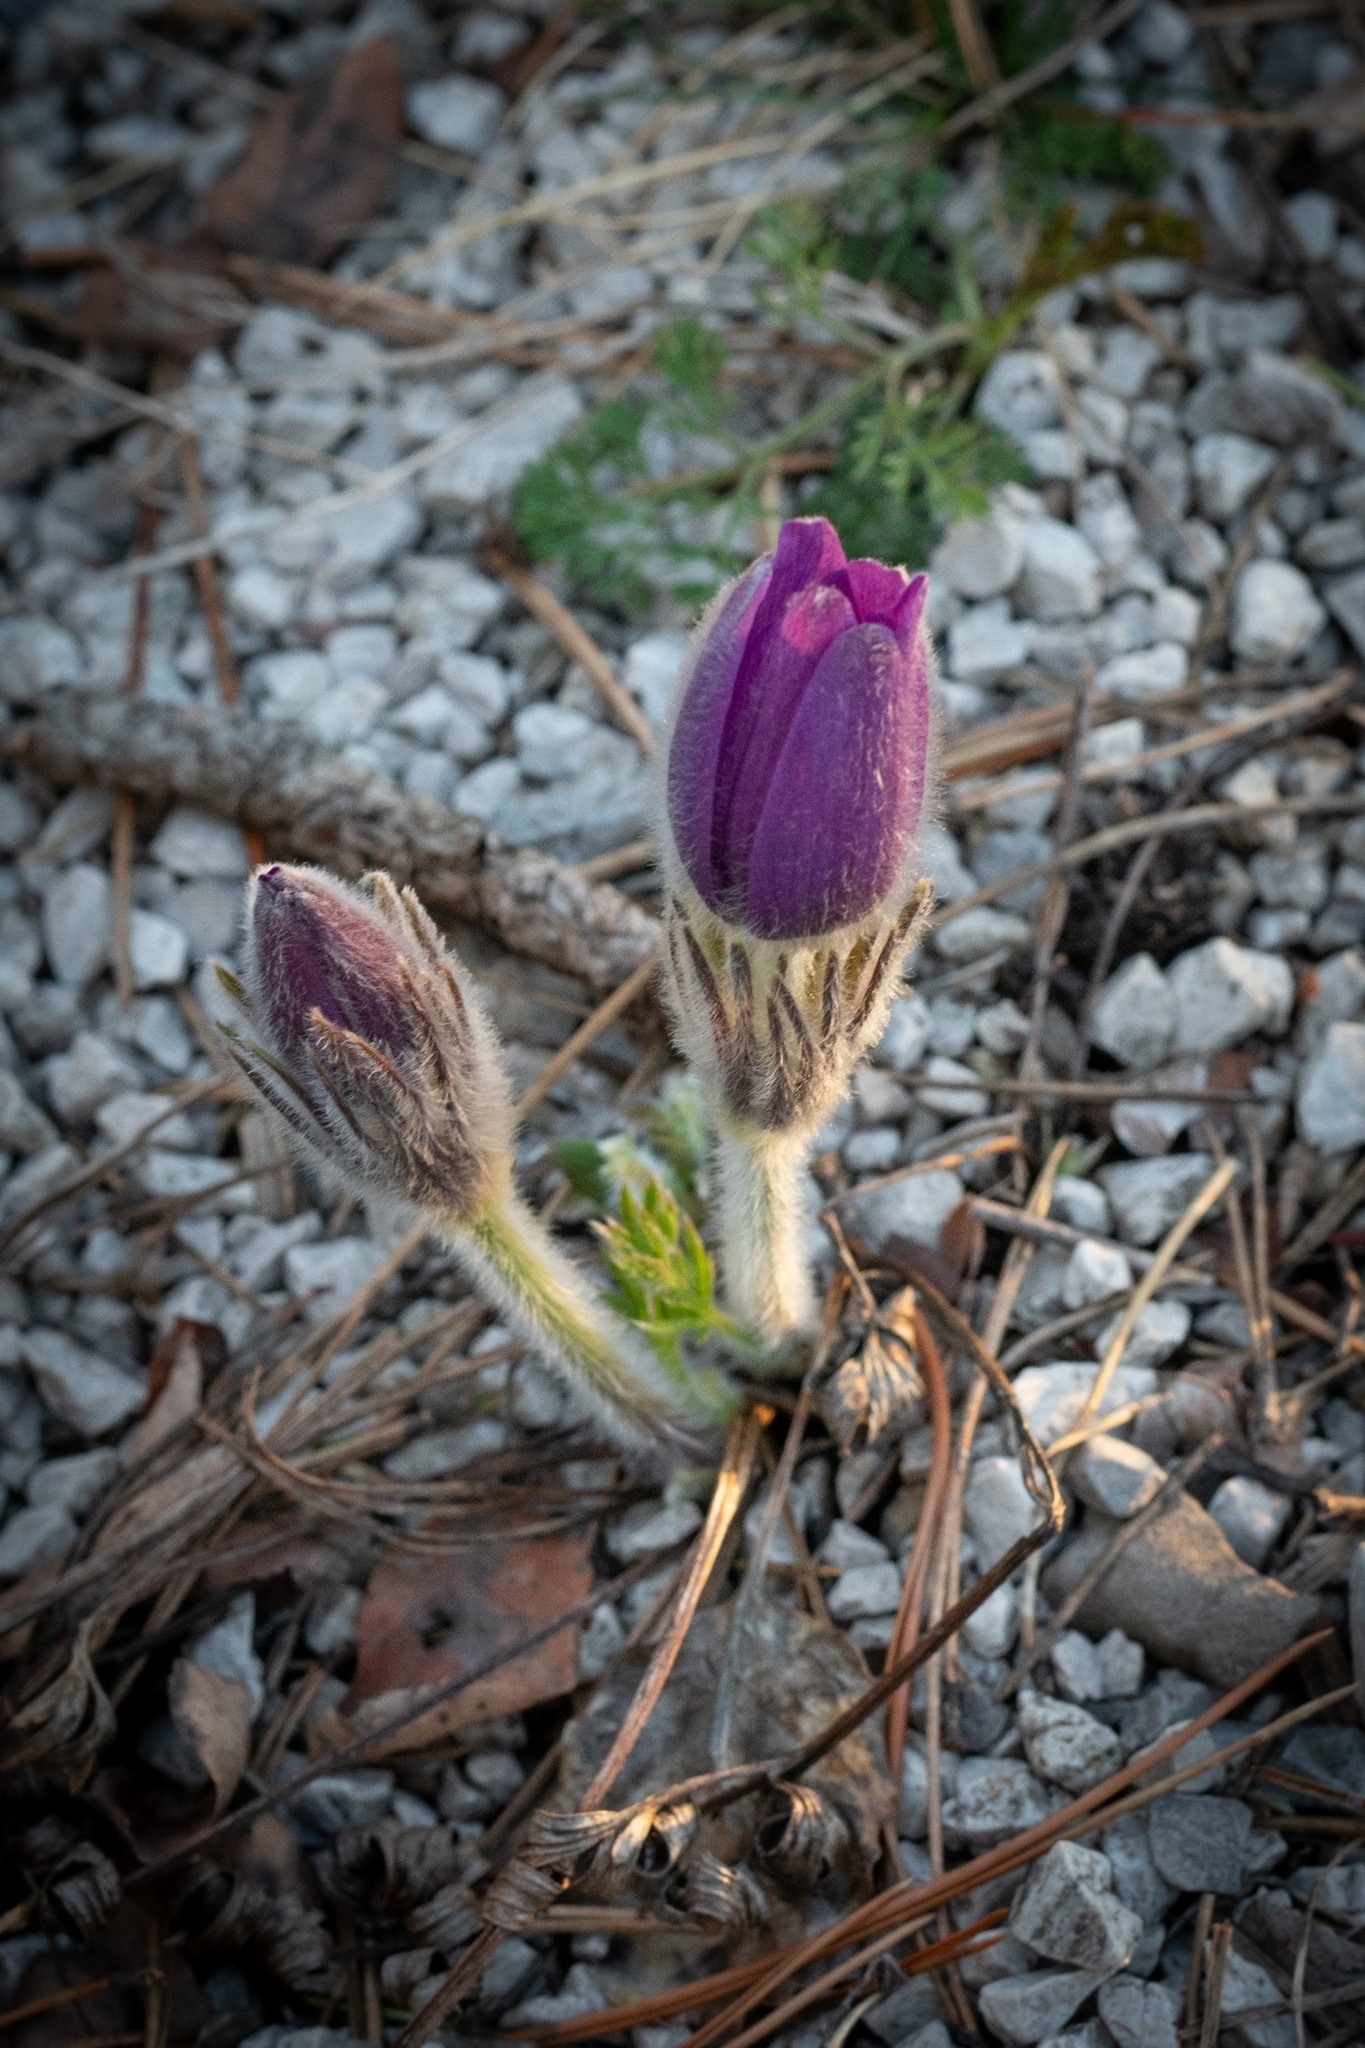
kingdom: Plantae
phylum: Tracheophyta
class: Magnoliopsida
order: Ranunculales
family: Ranunculaceae
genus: Pulsatilla
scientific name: Pulsatilla grandis
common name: Greater pasque flower
